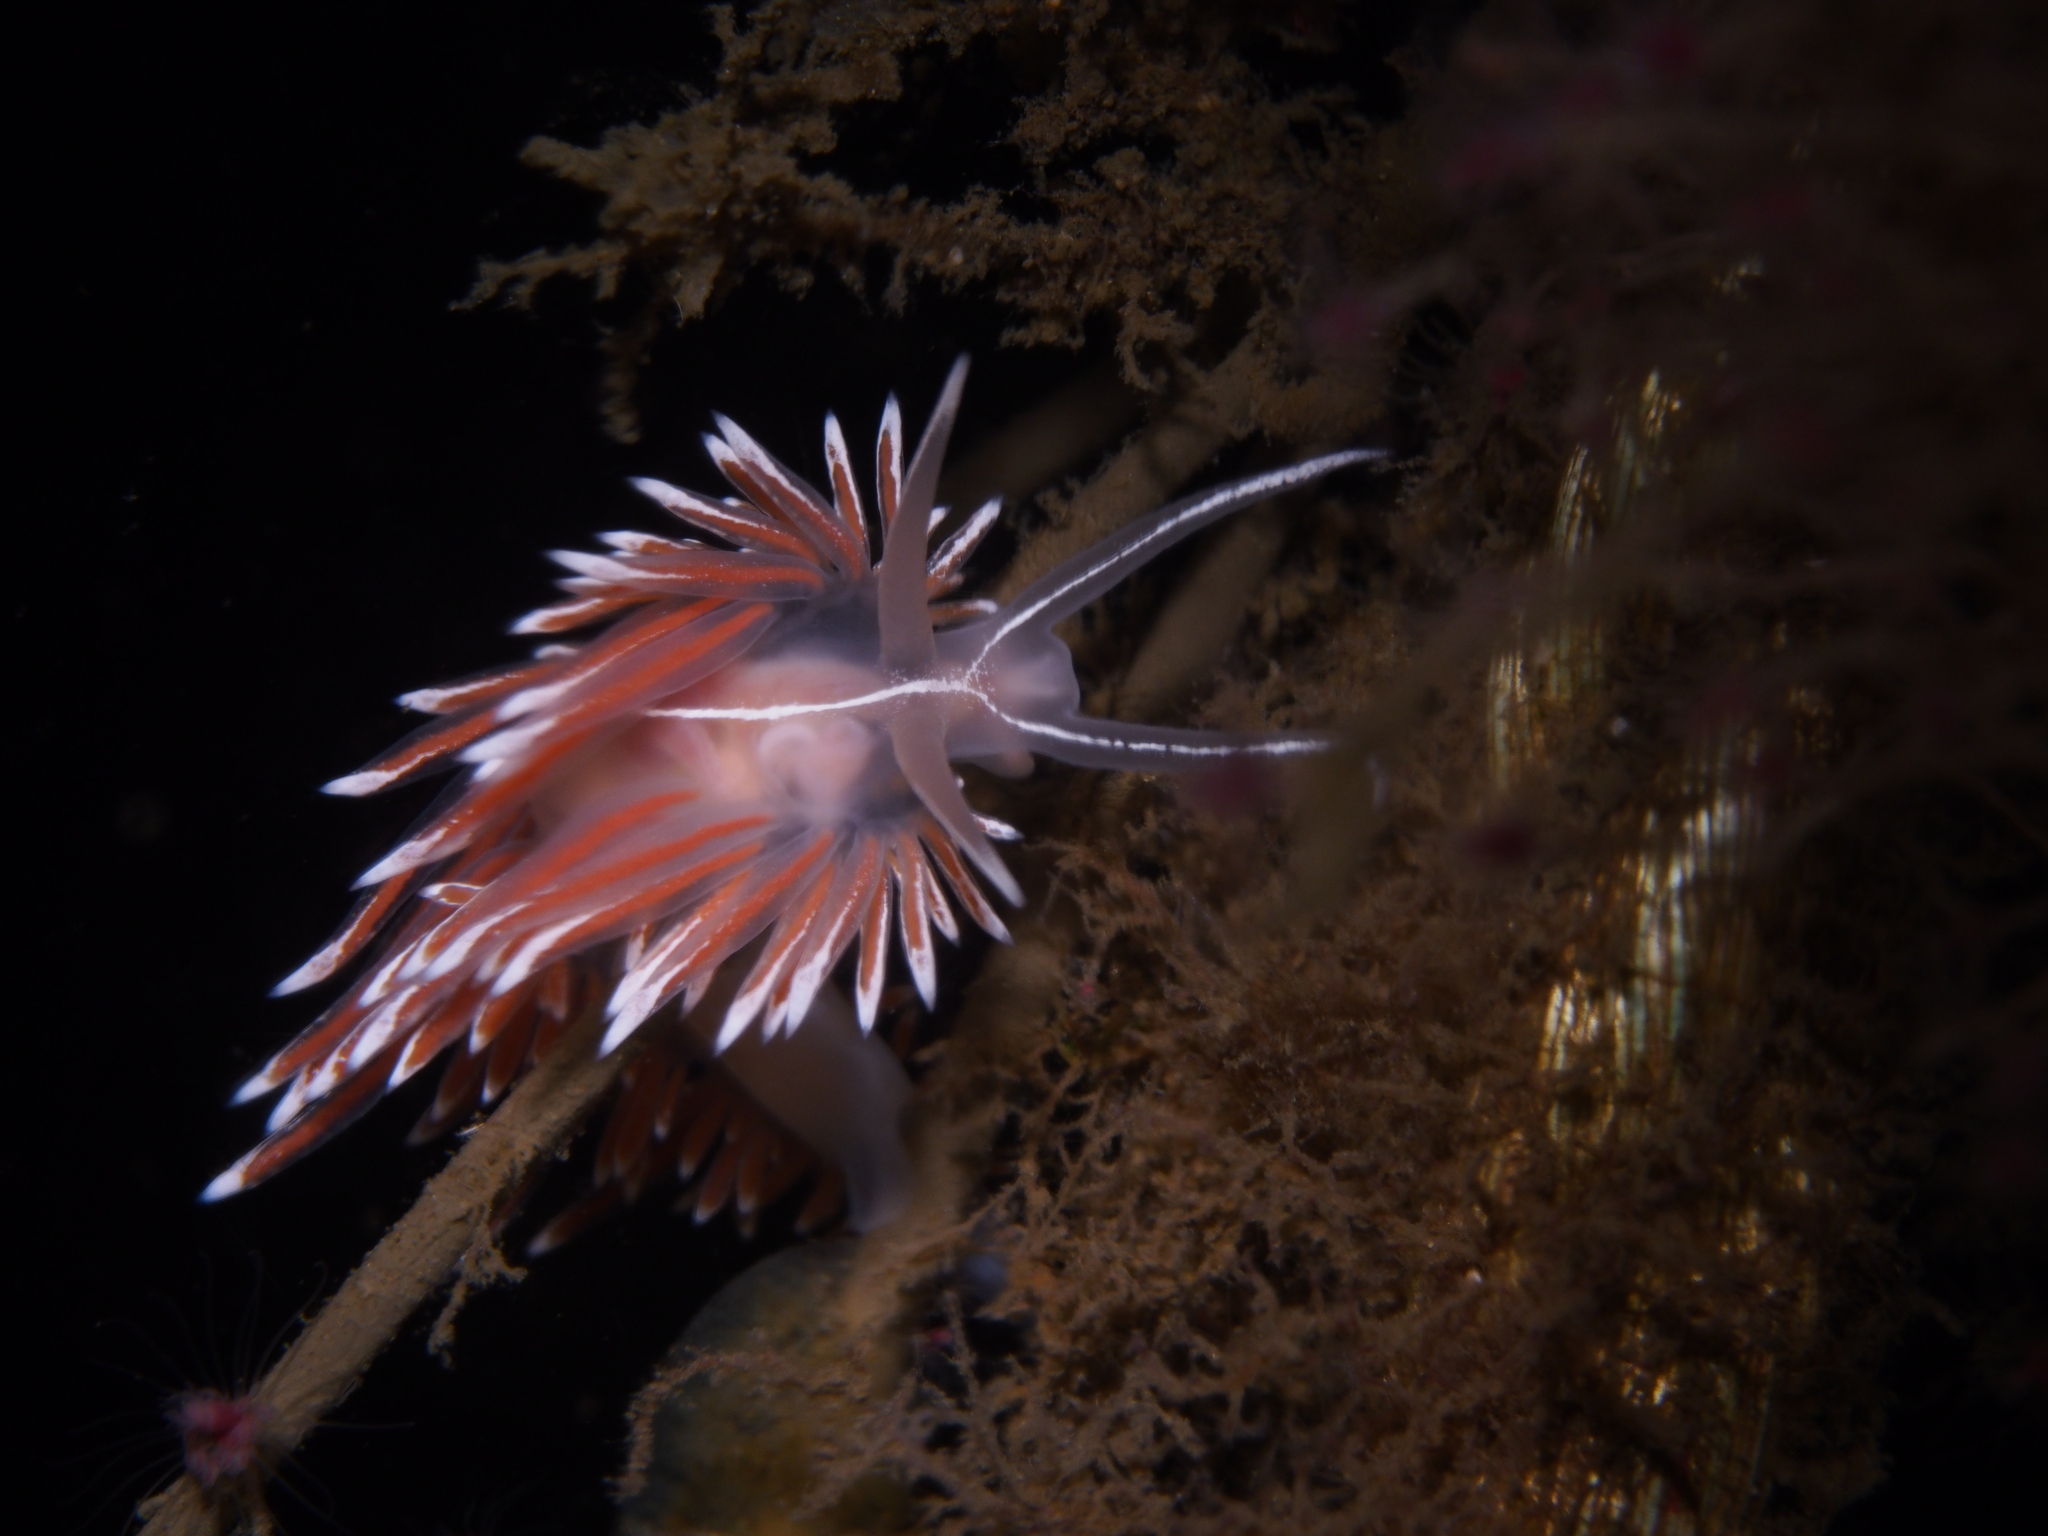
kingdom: Animalia
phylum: Mollusca
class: Gastropoda
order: Nudibranchia
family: Coryphellidae
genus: Coryphella
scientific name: Coryphella lineata
